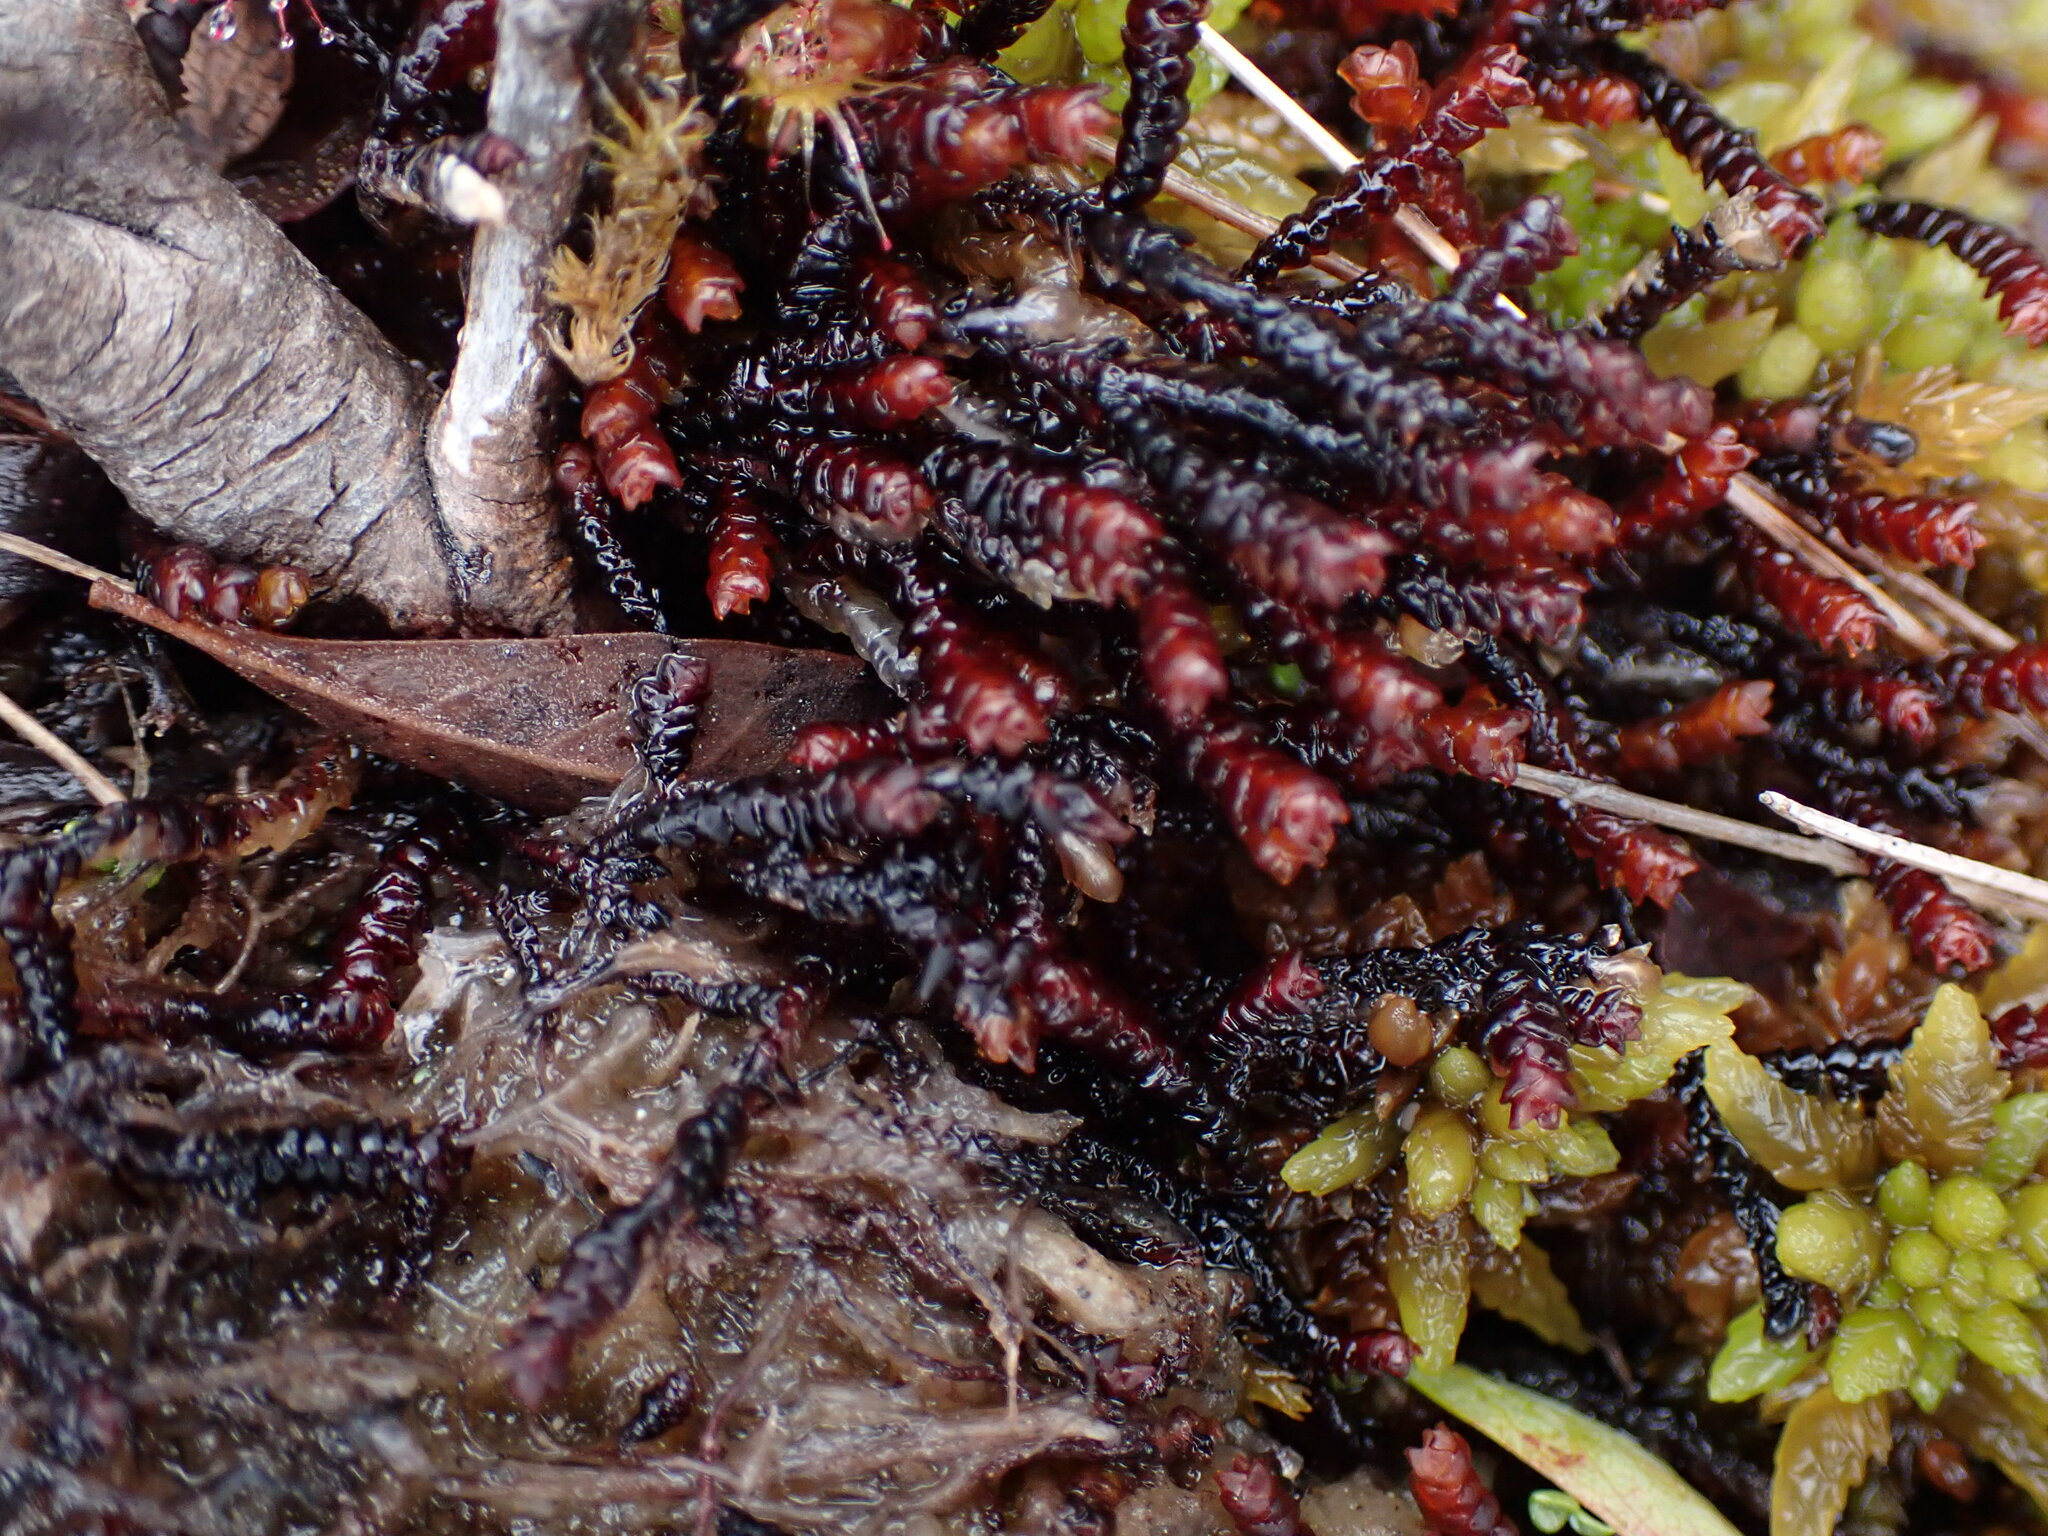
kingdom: Plantae
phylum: Marchantiophyta
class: Jungermanniopsida
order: Pleuroziales
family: Pleuroziaceae
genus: Pleurozia
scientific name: Pleurozia purpurea
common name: Purple spoonwort
